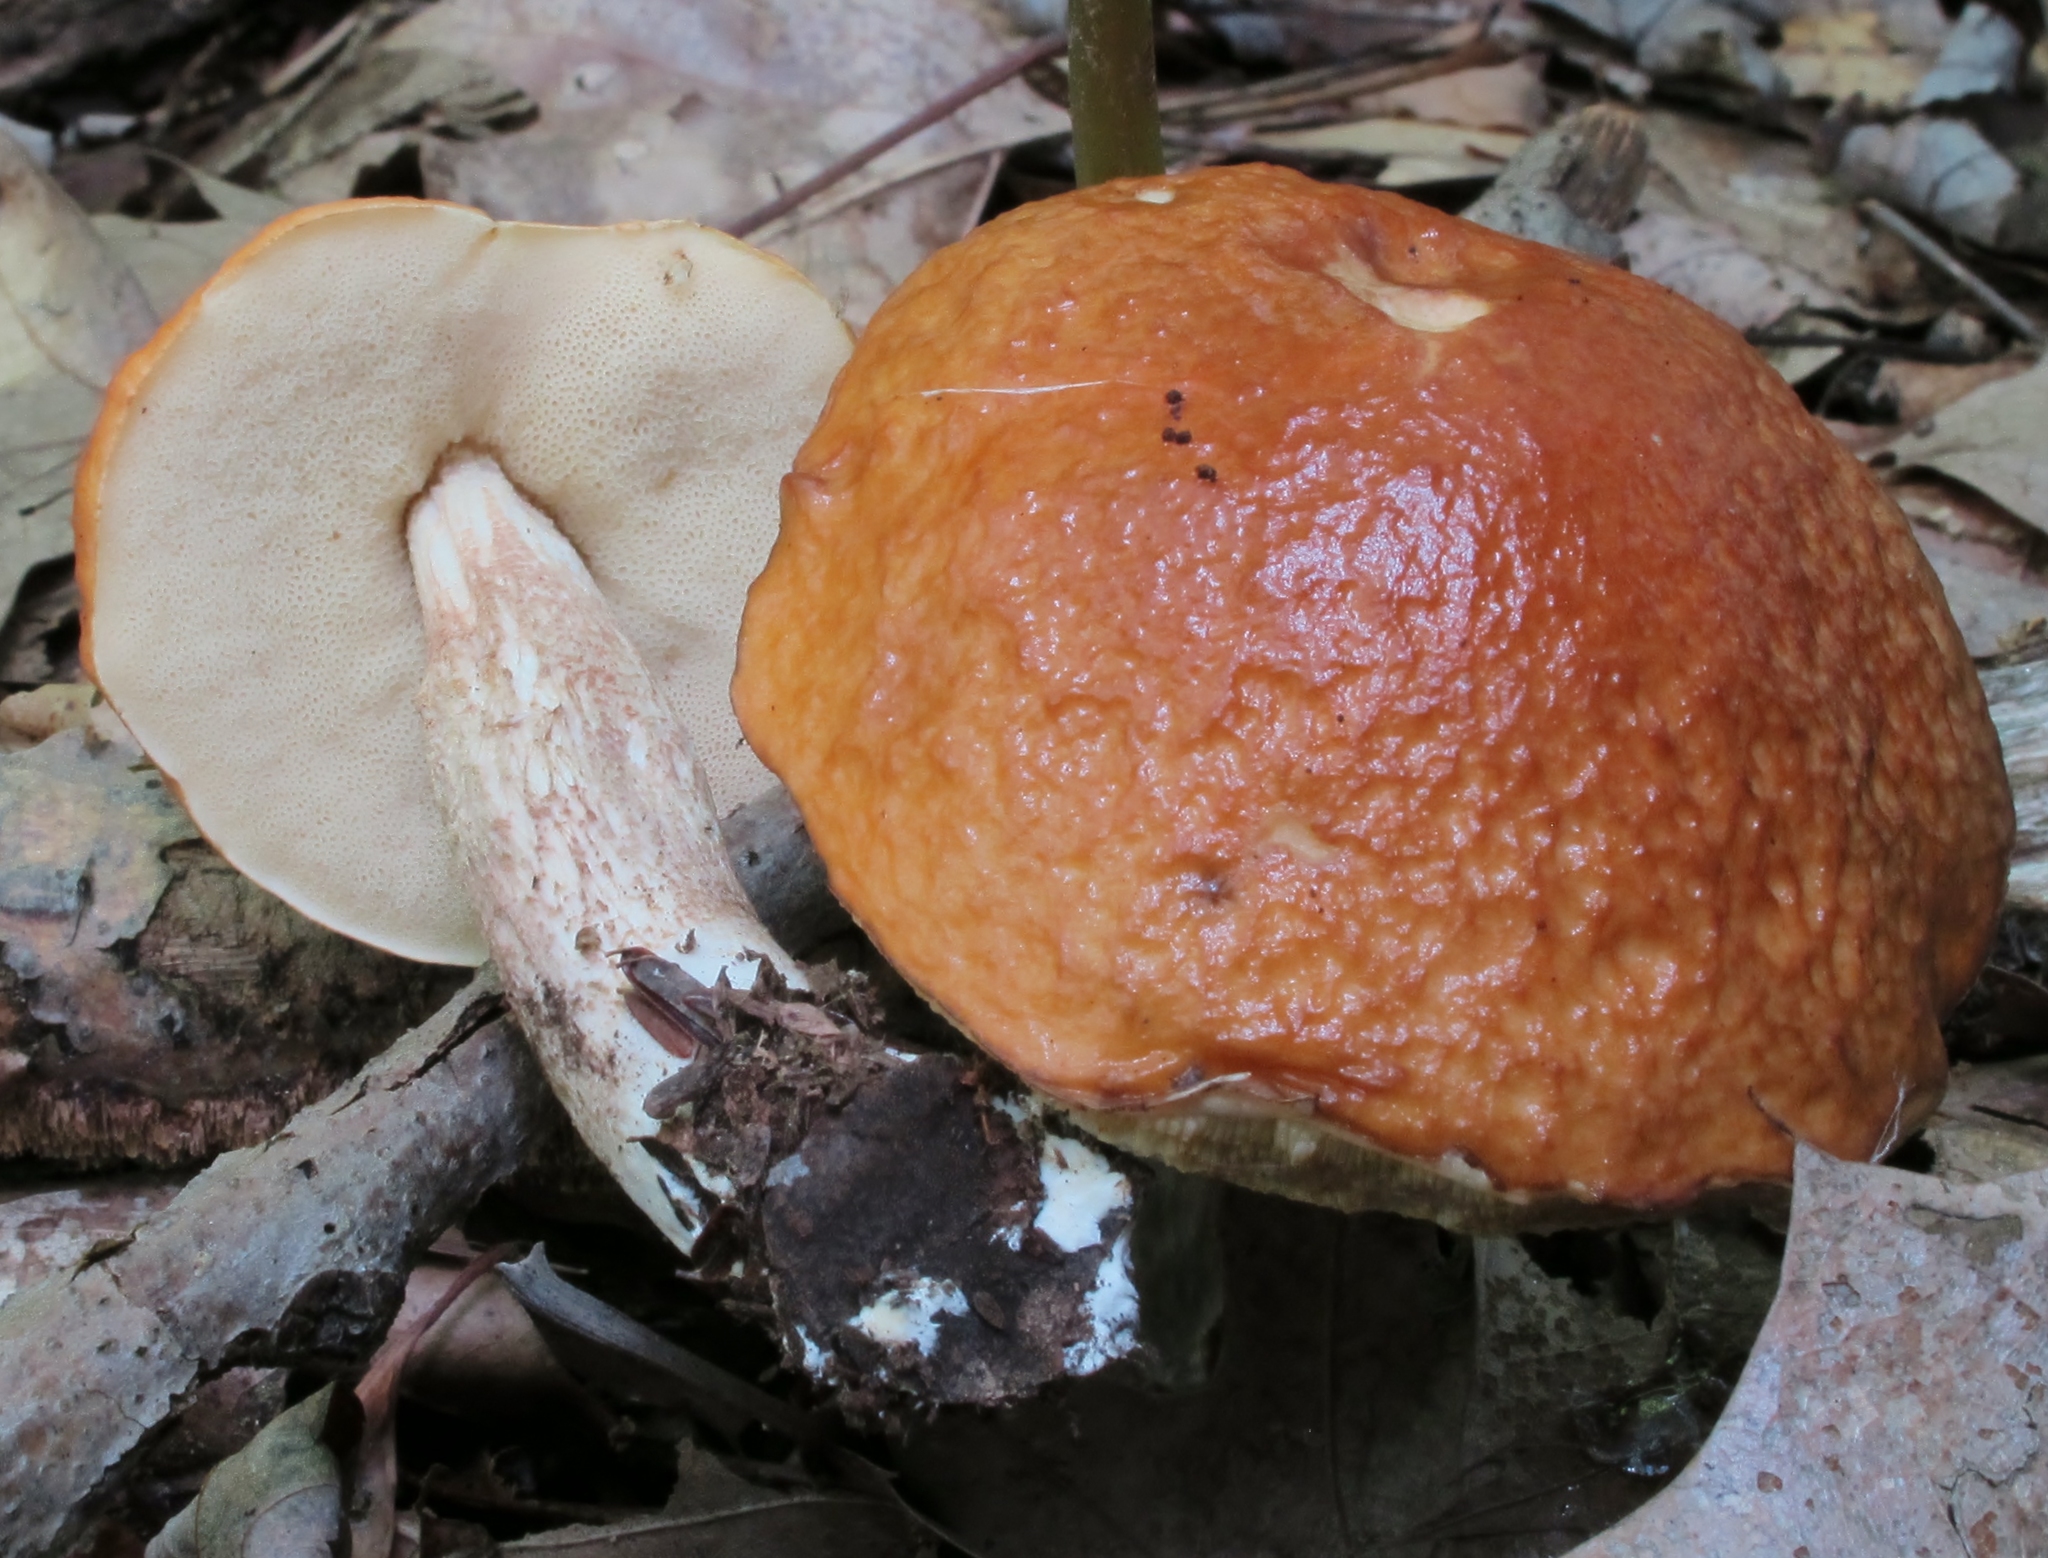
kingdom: Fungi
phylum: Basidiomycota
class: Agaricomycetes
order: Boletales
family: Boletaceae
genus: Leccinum
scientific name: Leccinum longicurvipes
